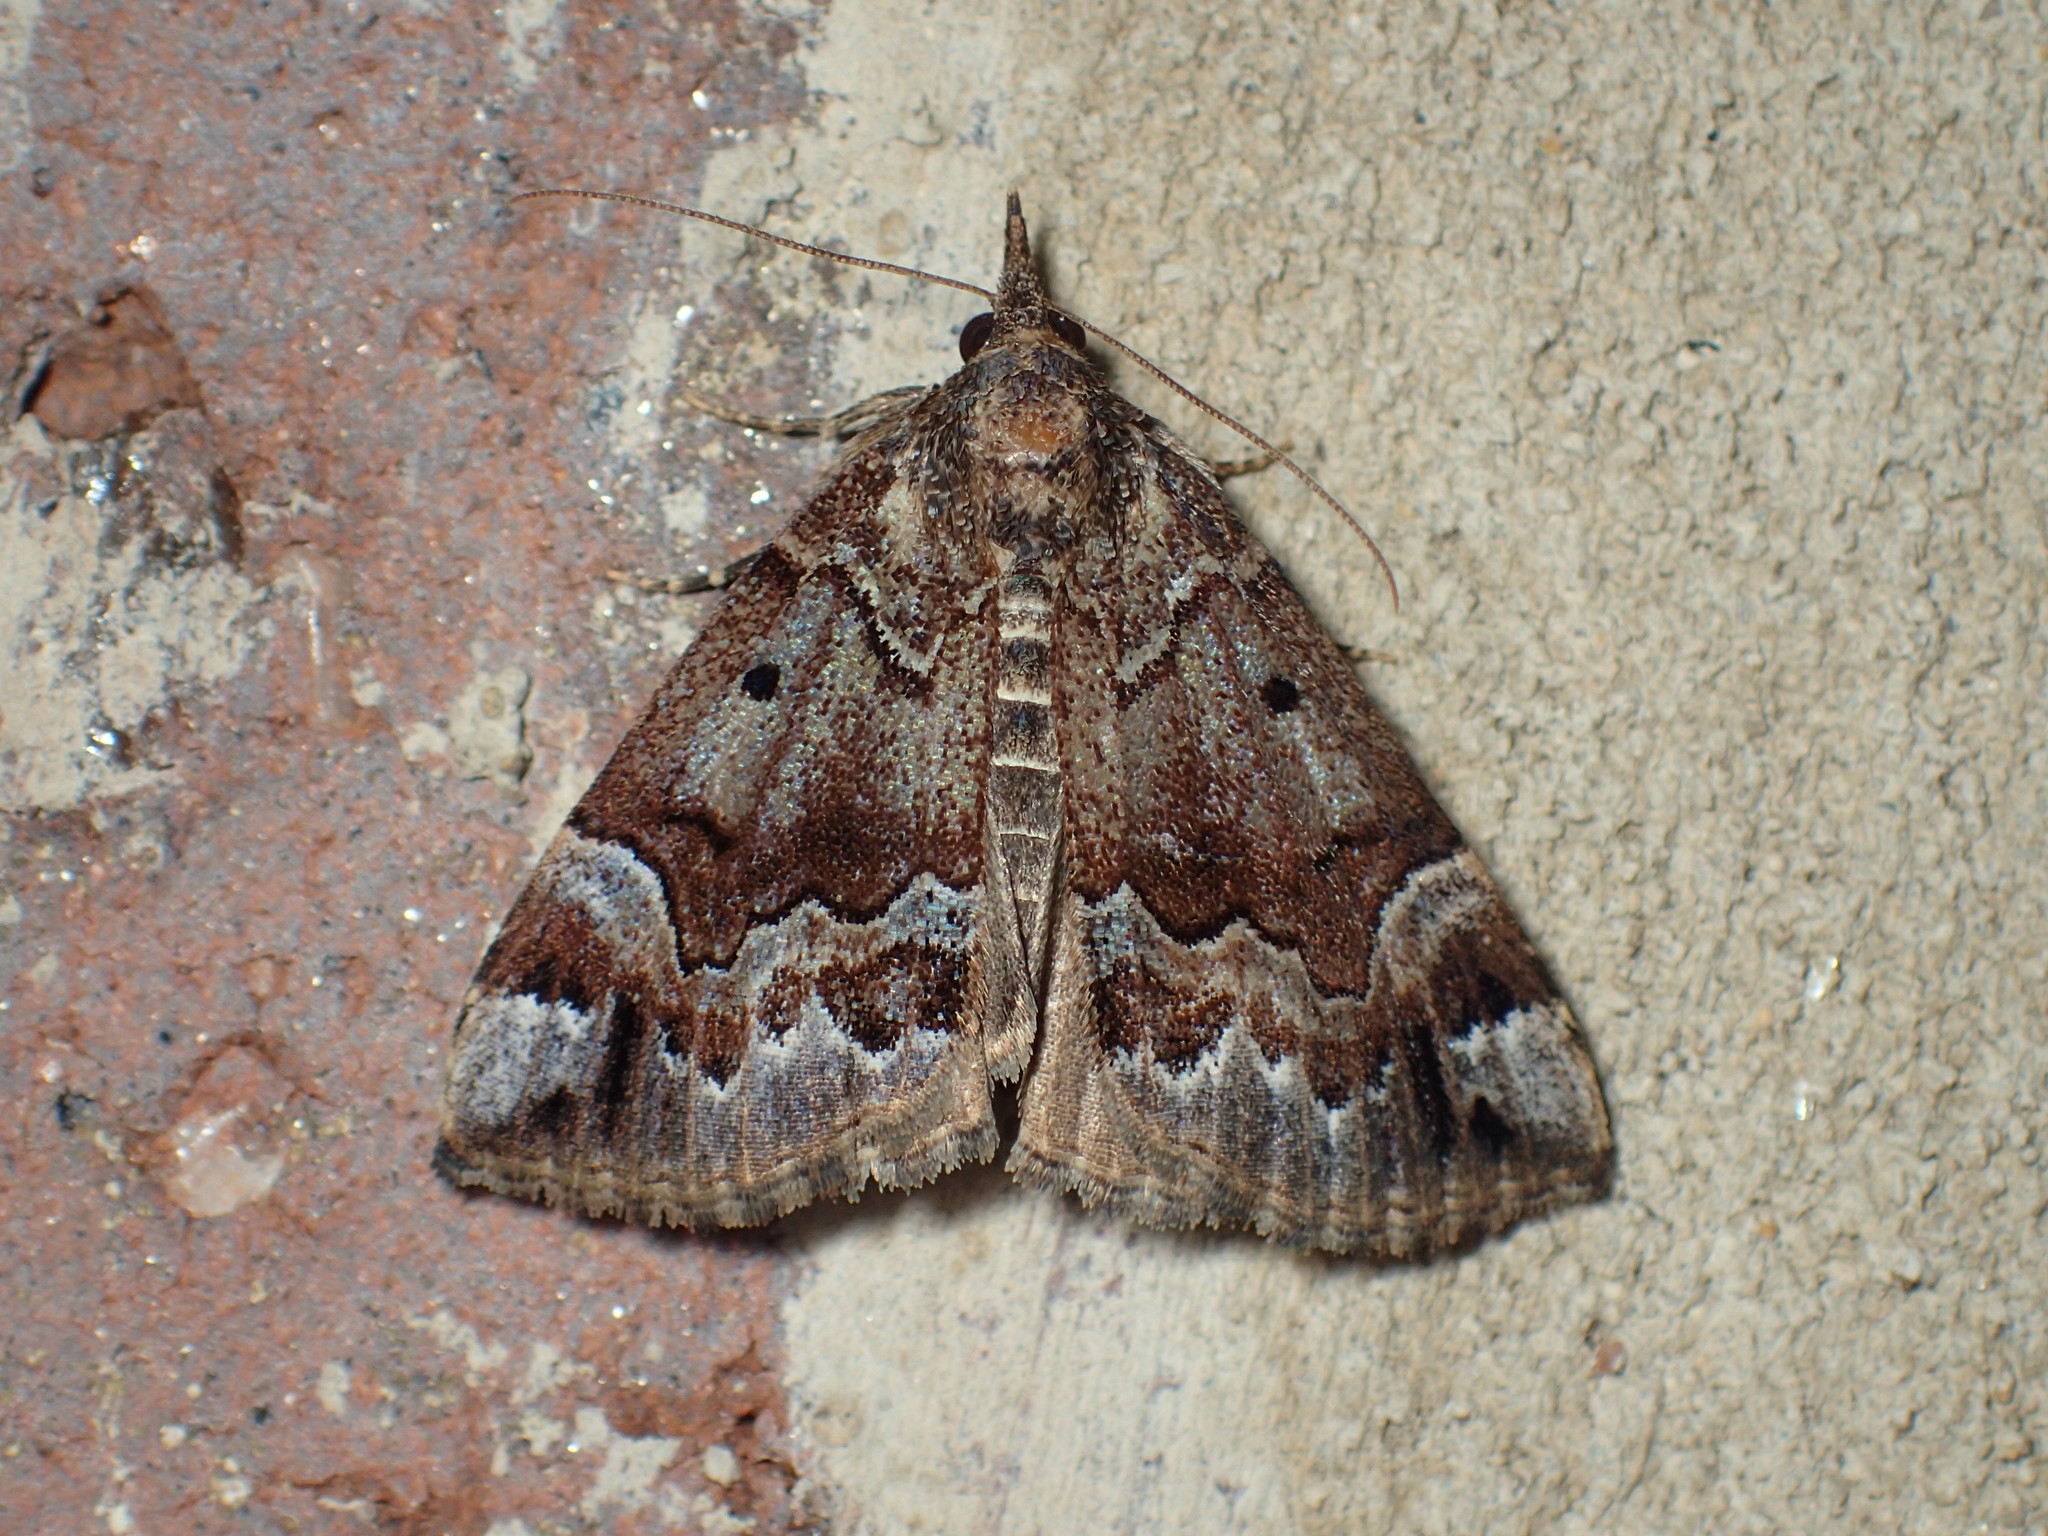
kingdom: Animalia
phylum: Arthropoda
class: Insecta
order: Lepidoptera
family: Erebidae
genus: Hypena
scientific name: Hypena palparia
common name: Mottled bomolocha moth
